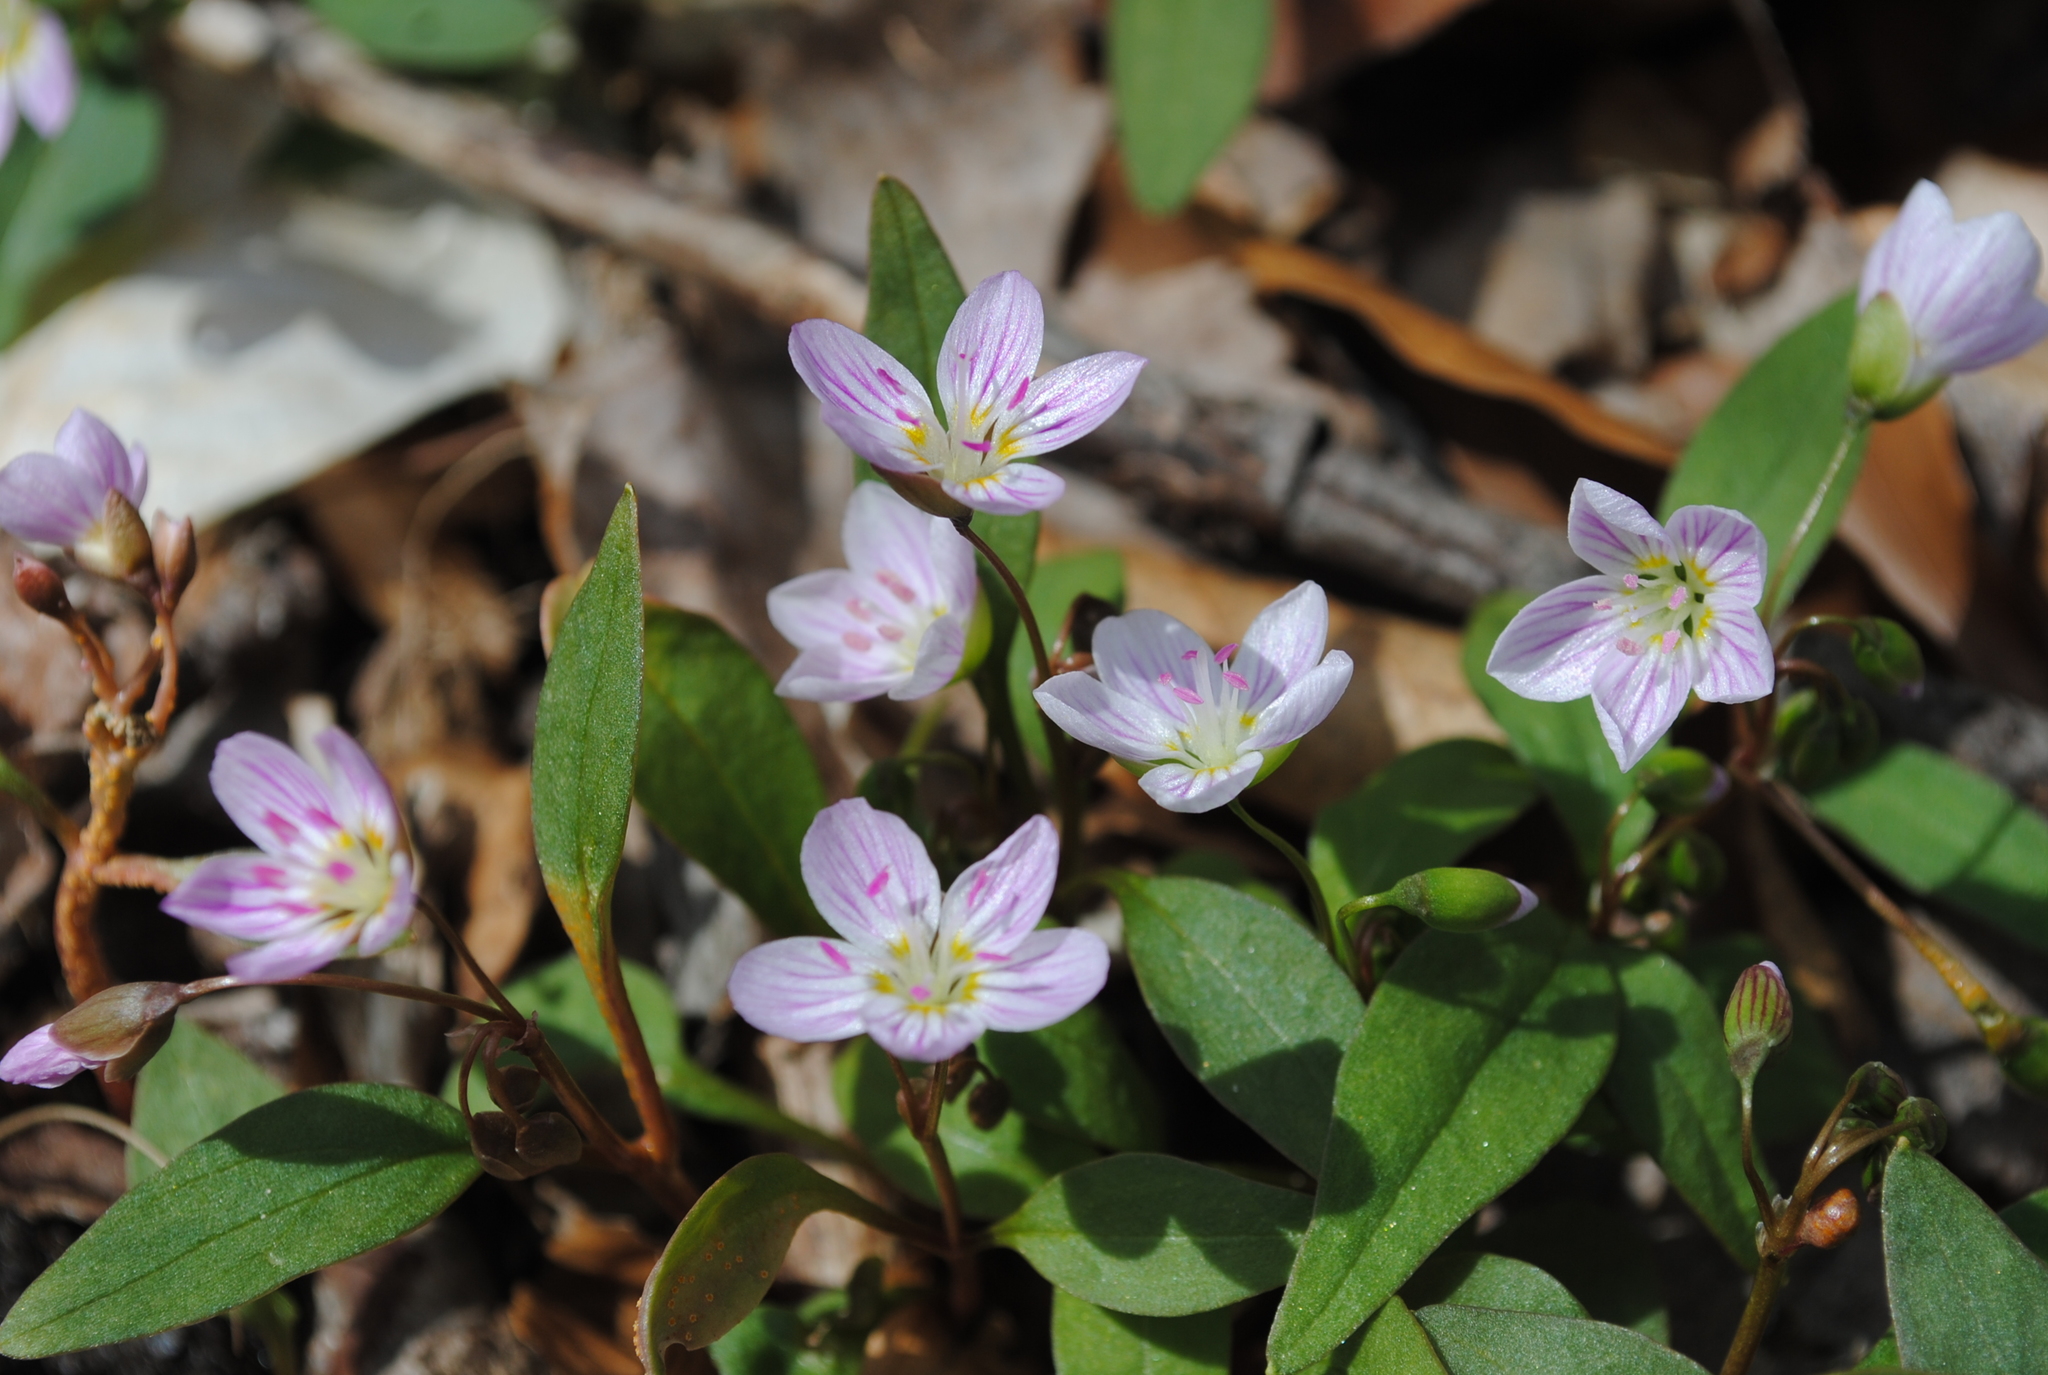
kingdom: Plantae
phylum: Tracheophyta
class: Magnoliopsida
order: Caryophyllales
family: Montiaceae
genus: Claytonia
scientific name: Claytonia caroliniana
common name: Carolina spring beauty
